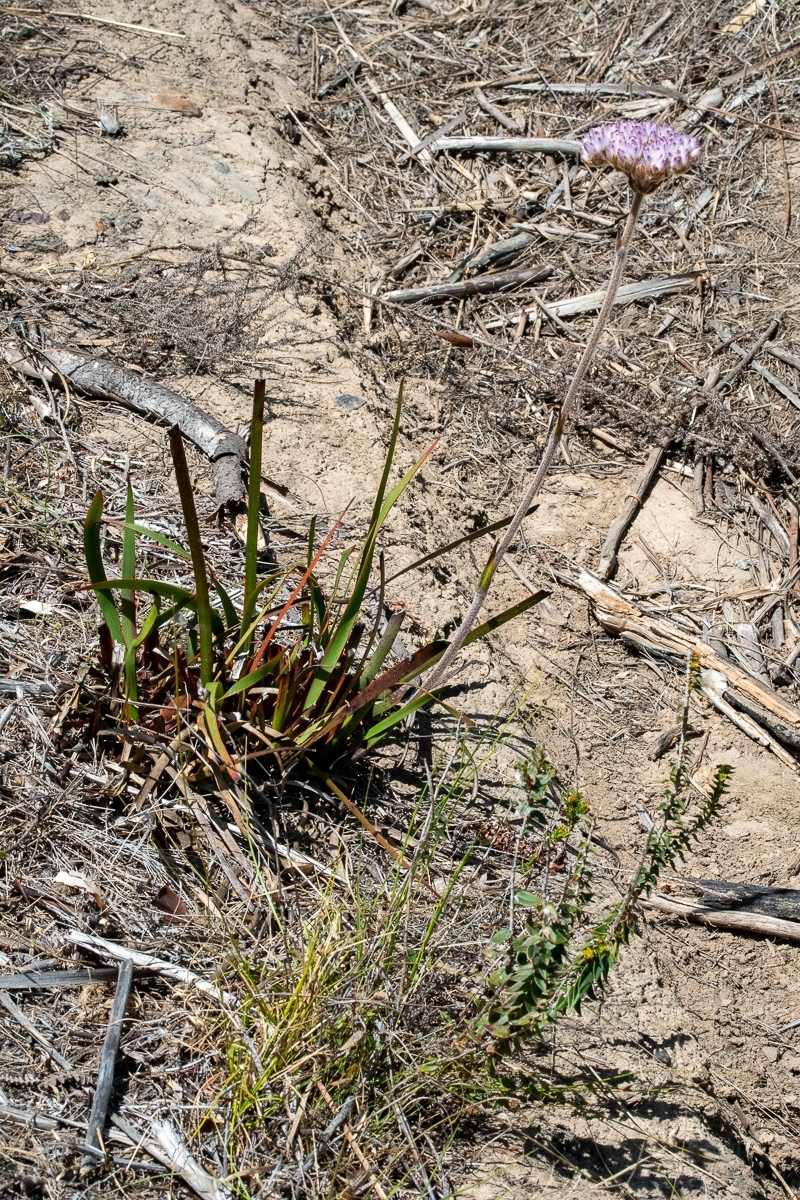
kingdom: Plantae
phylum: Tracheophyta
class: Liliopsida
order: Commelinales
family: Haemodoraceae
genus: Dilatris
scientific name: Dilatris pillansii
